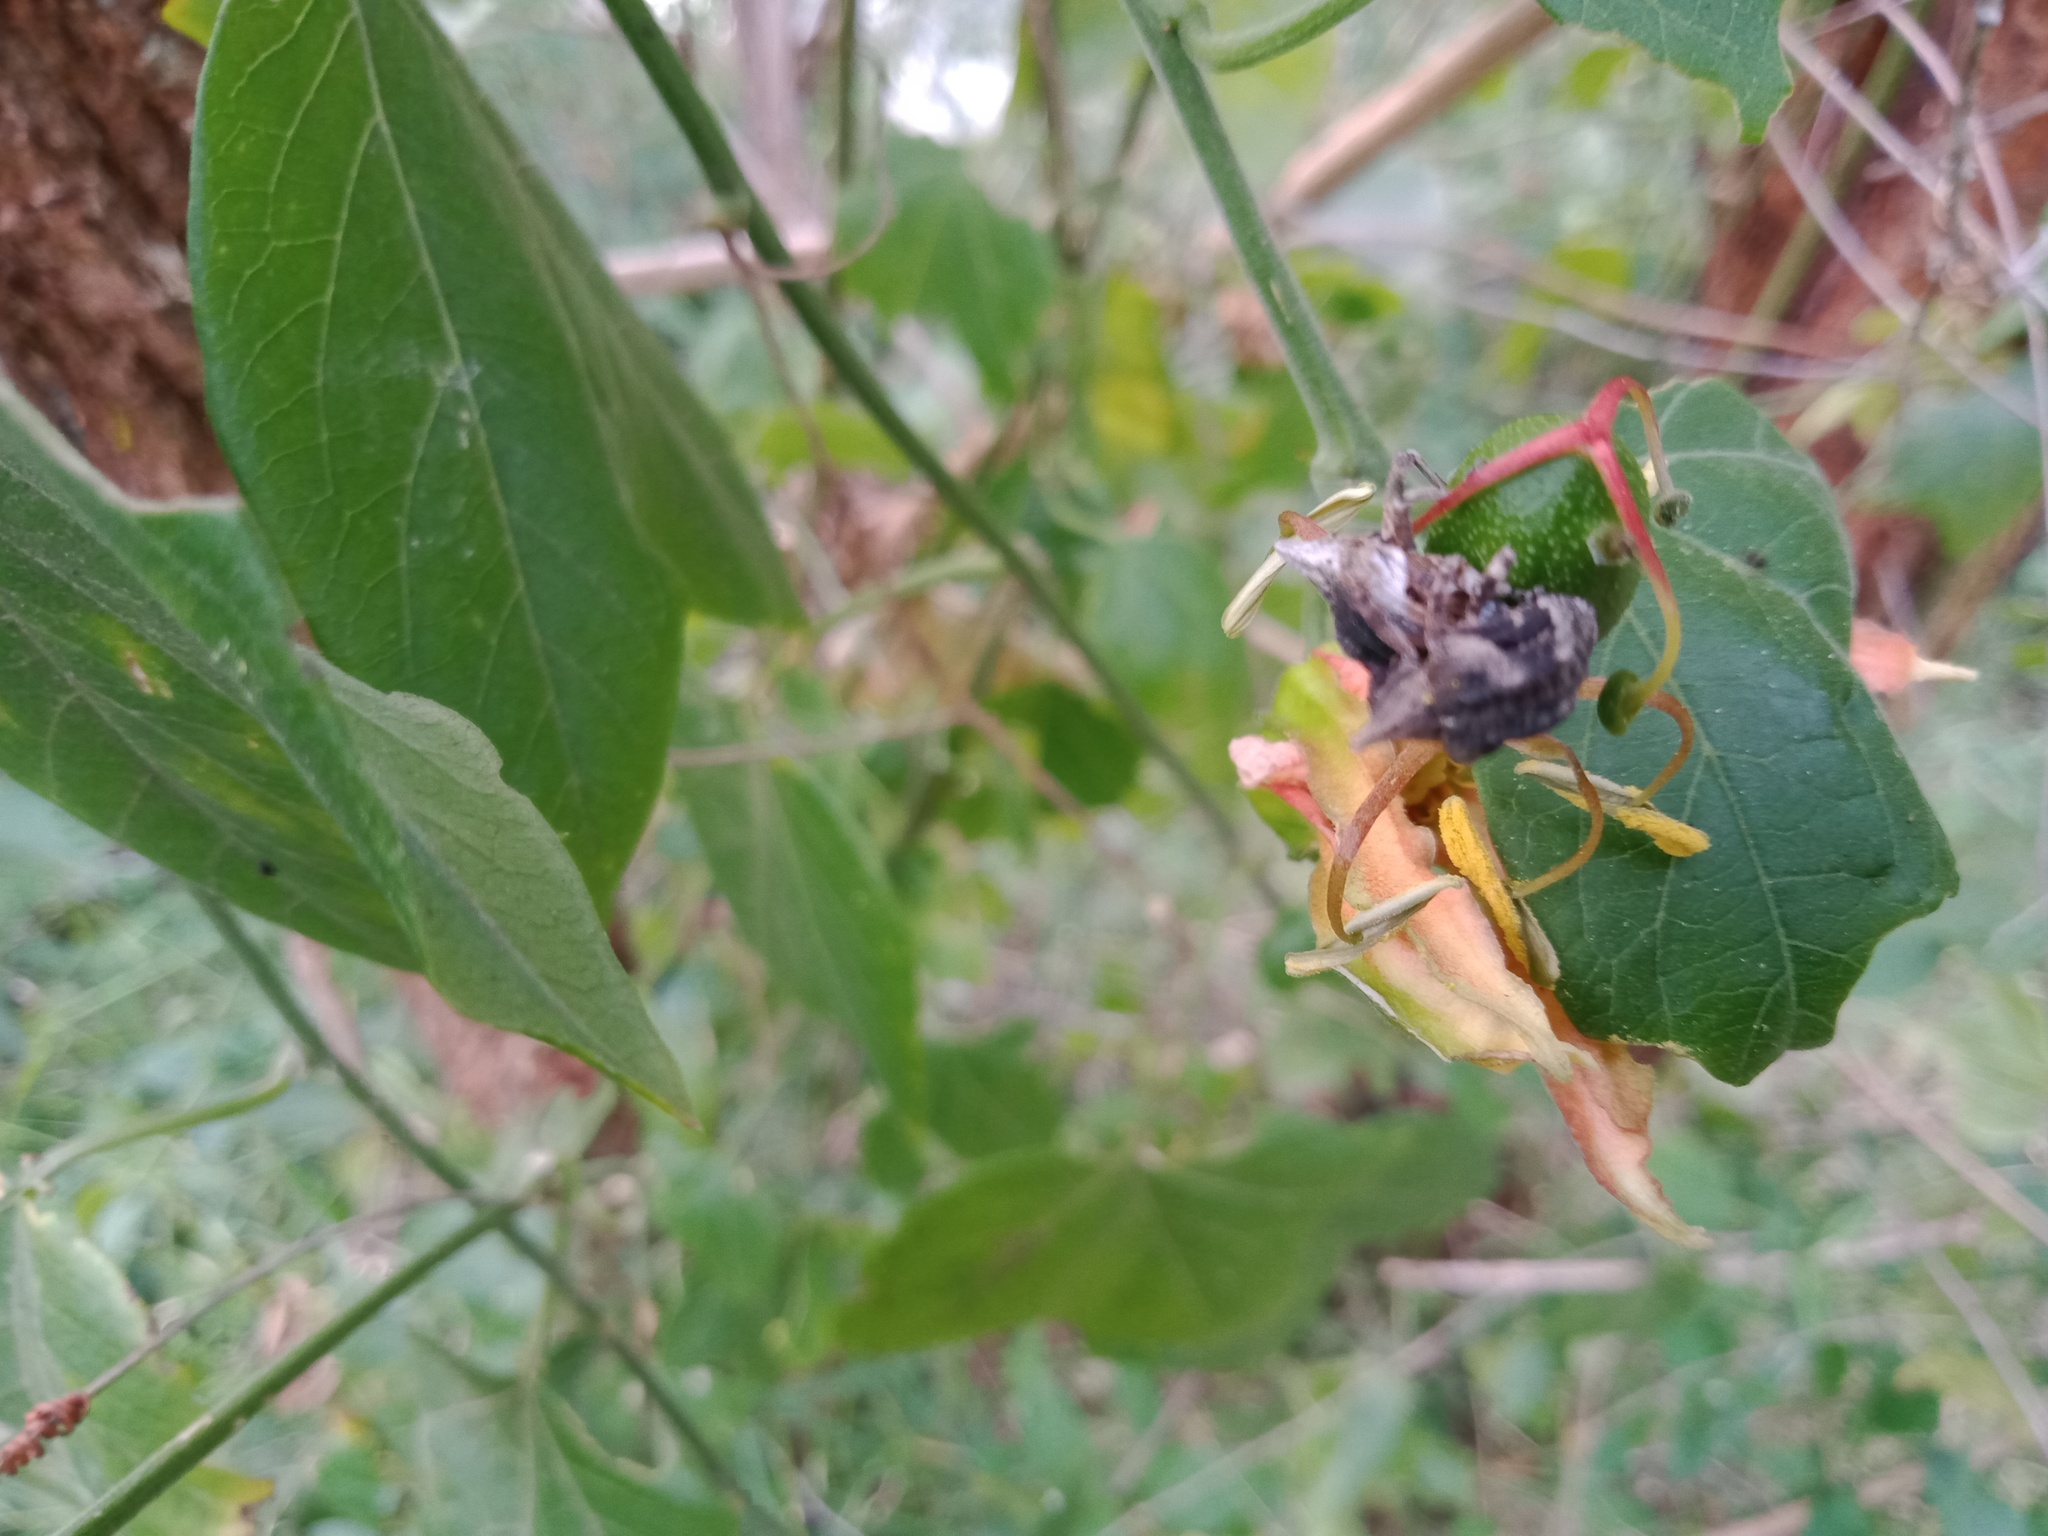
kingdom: Animalia
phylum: Arthropoda
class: Insecta
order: Coleoptera
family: Curculionidae
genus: Oemethylus
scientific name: Oemethylus
